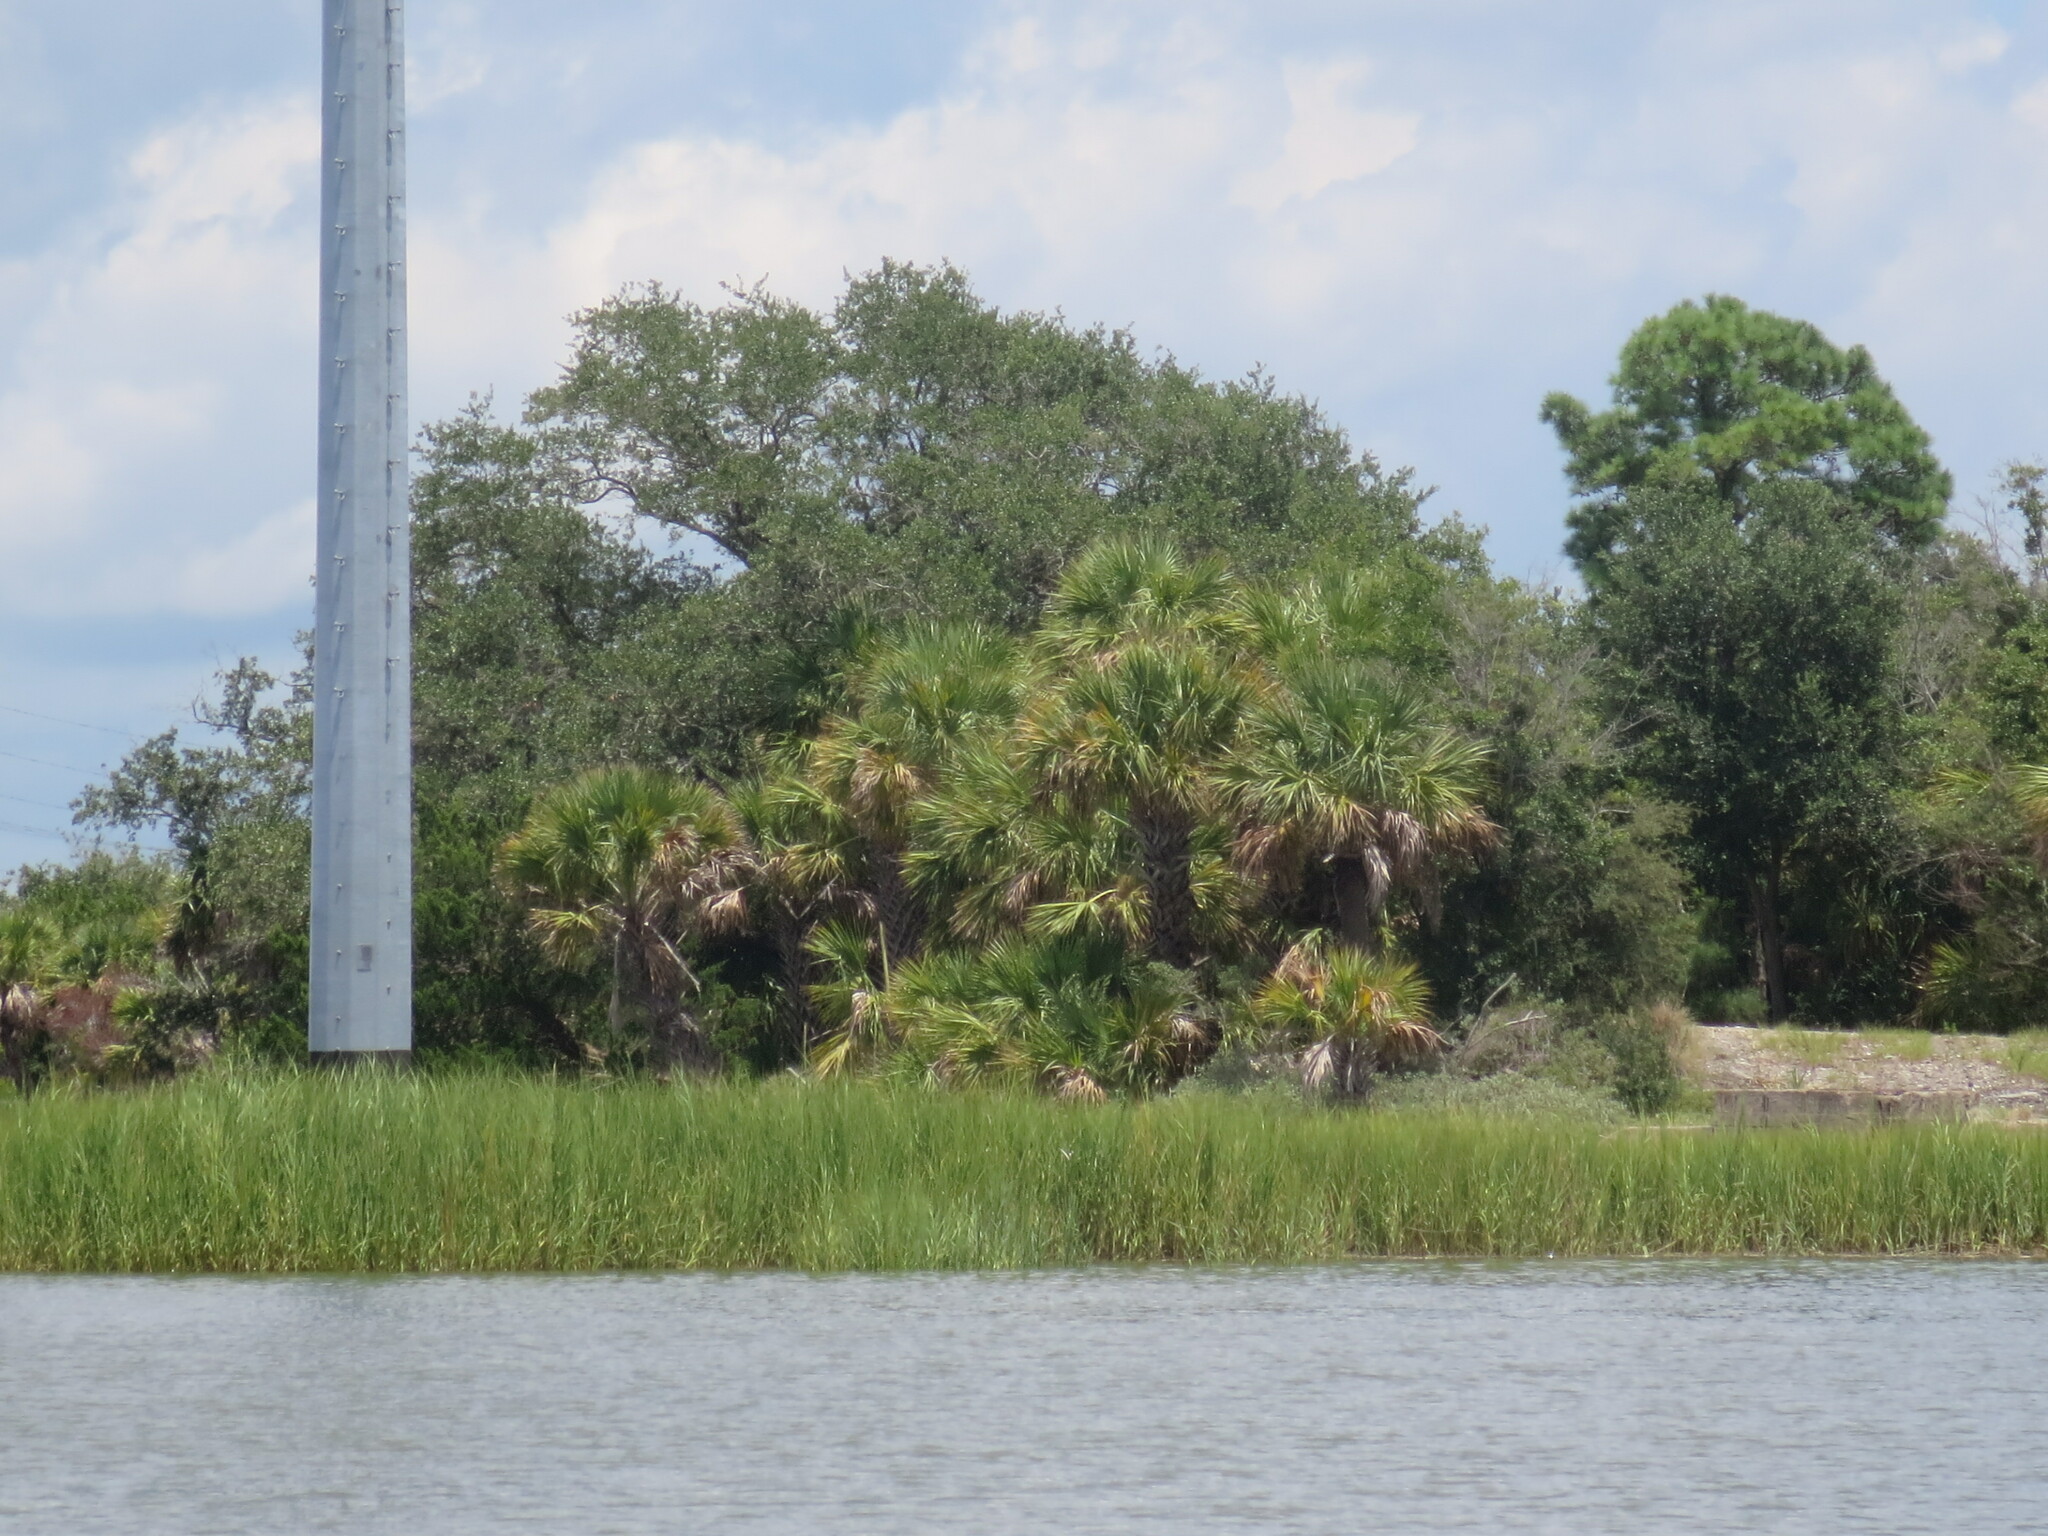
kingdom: Plantae
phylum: Tracheophyta
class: Liliopsida
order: Arecales
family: Arecaceae
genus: Sabal
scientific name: Sabal palmetto
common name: Blue palmetto
